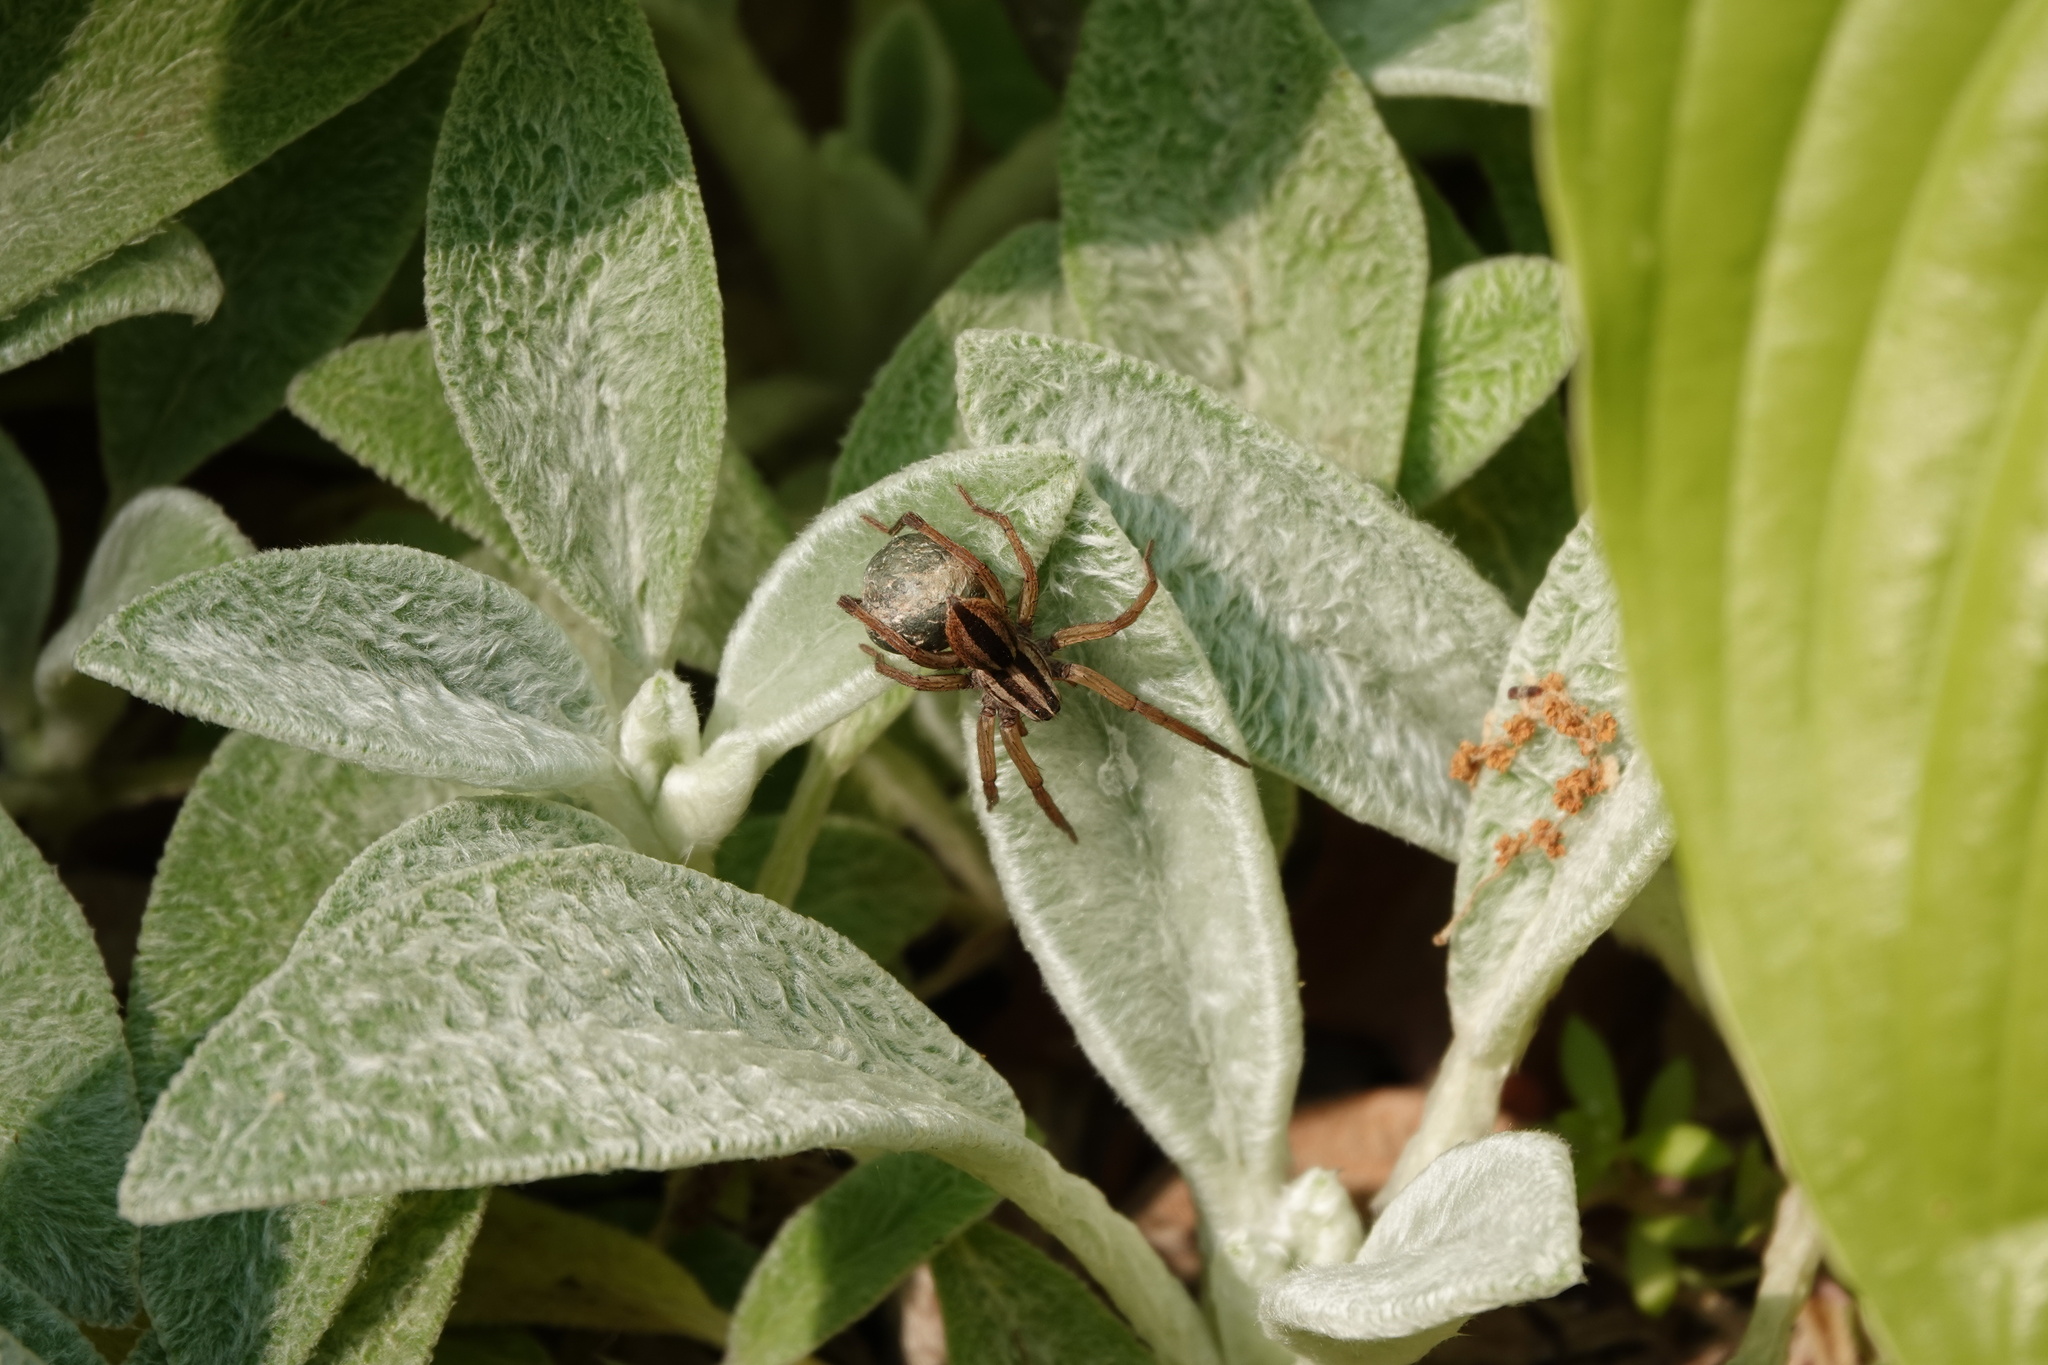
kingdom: Animalia
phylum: Arthropoda
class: Arachnida
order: Araneae
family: Lycosidae
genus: Rabidosa
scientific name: Rabidosa punctulata
